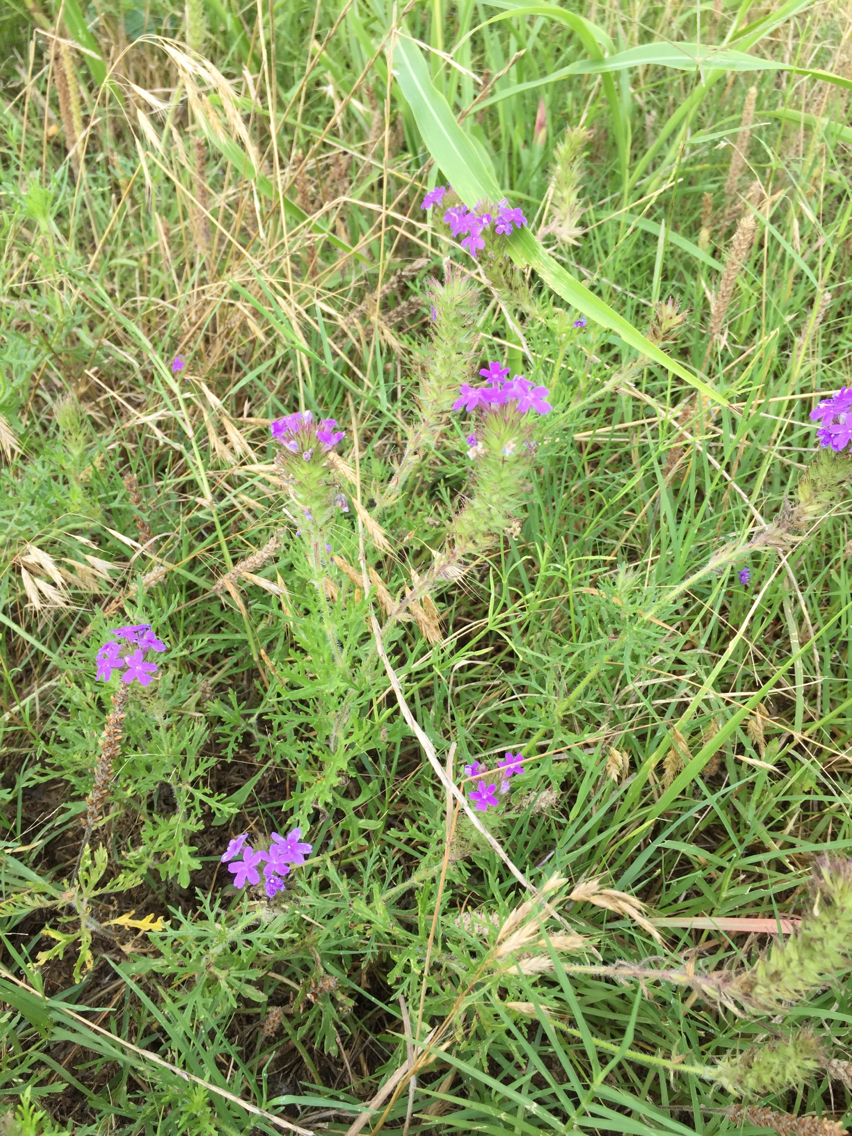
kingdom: Plantae
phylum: Tracheophyta
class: Magnoliopsida
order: Lamiales
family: Verbenaceae
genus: Verbena
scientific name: Verbena bipinnatifida
